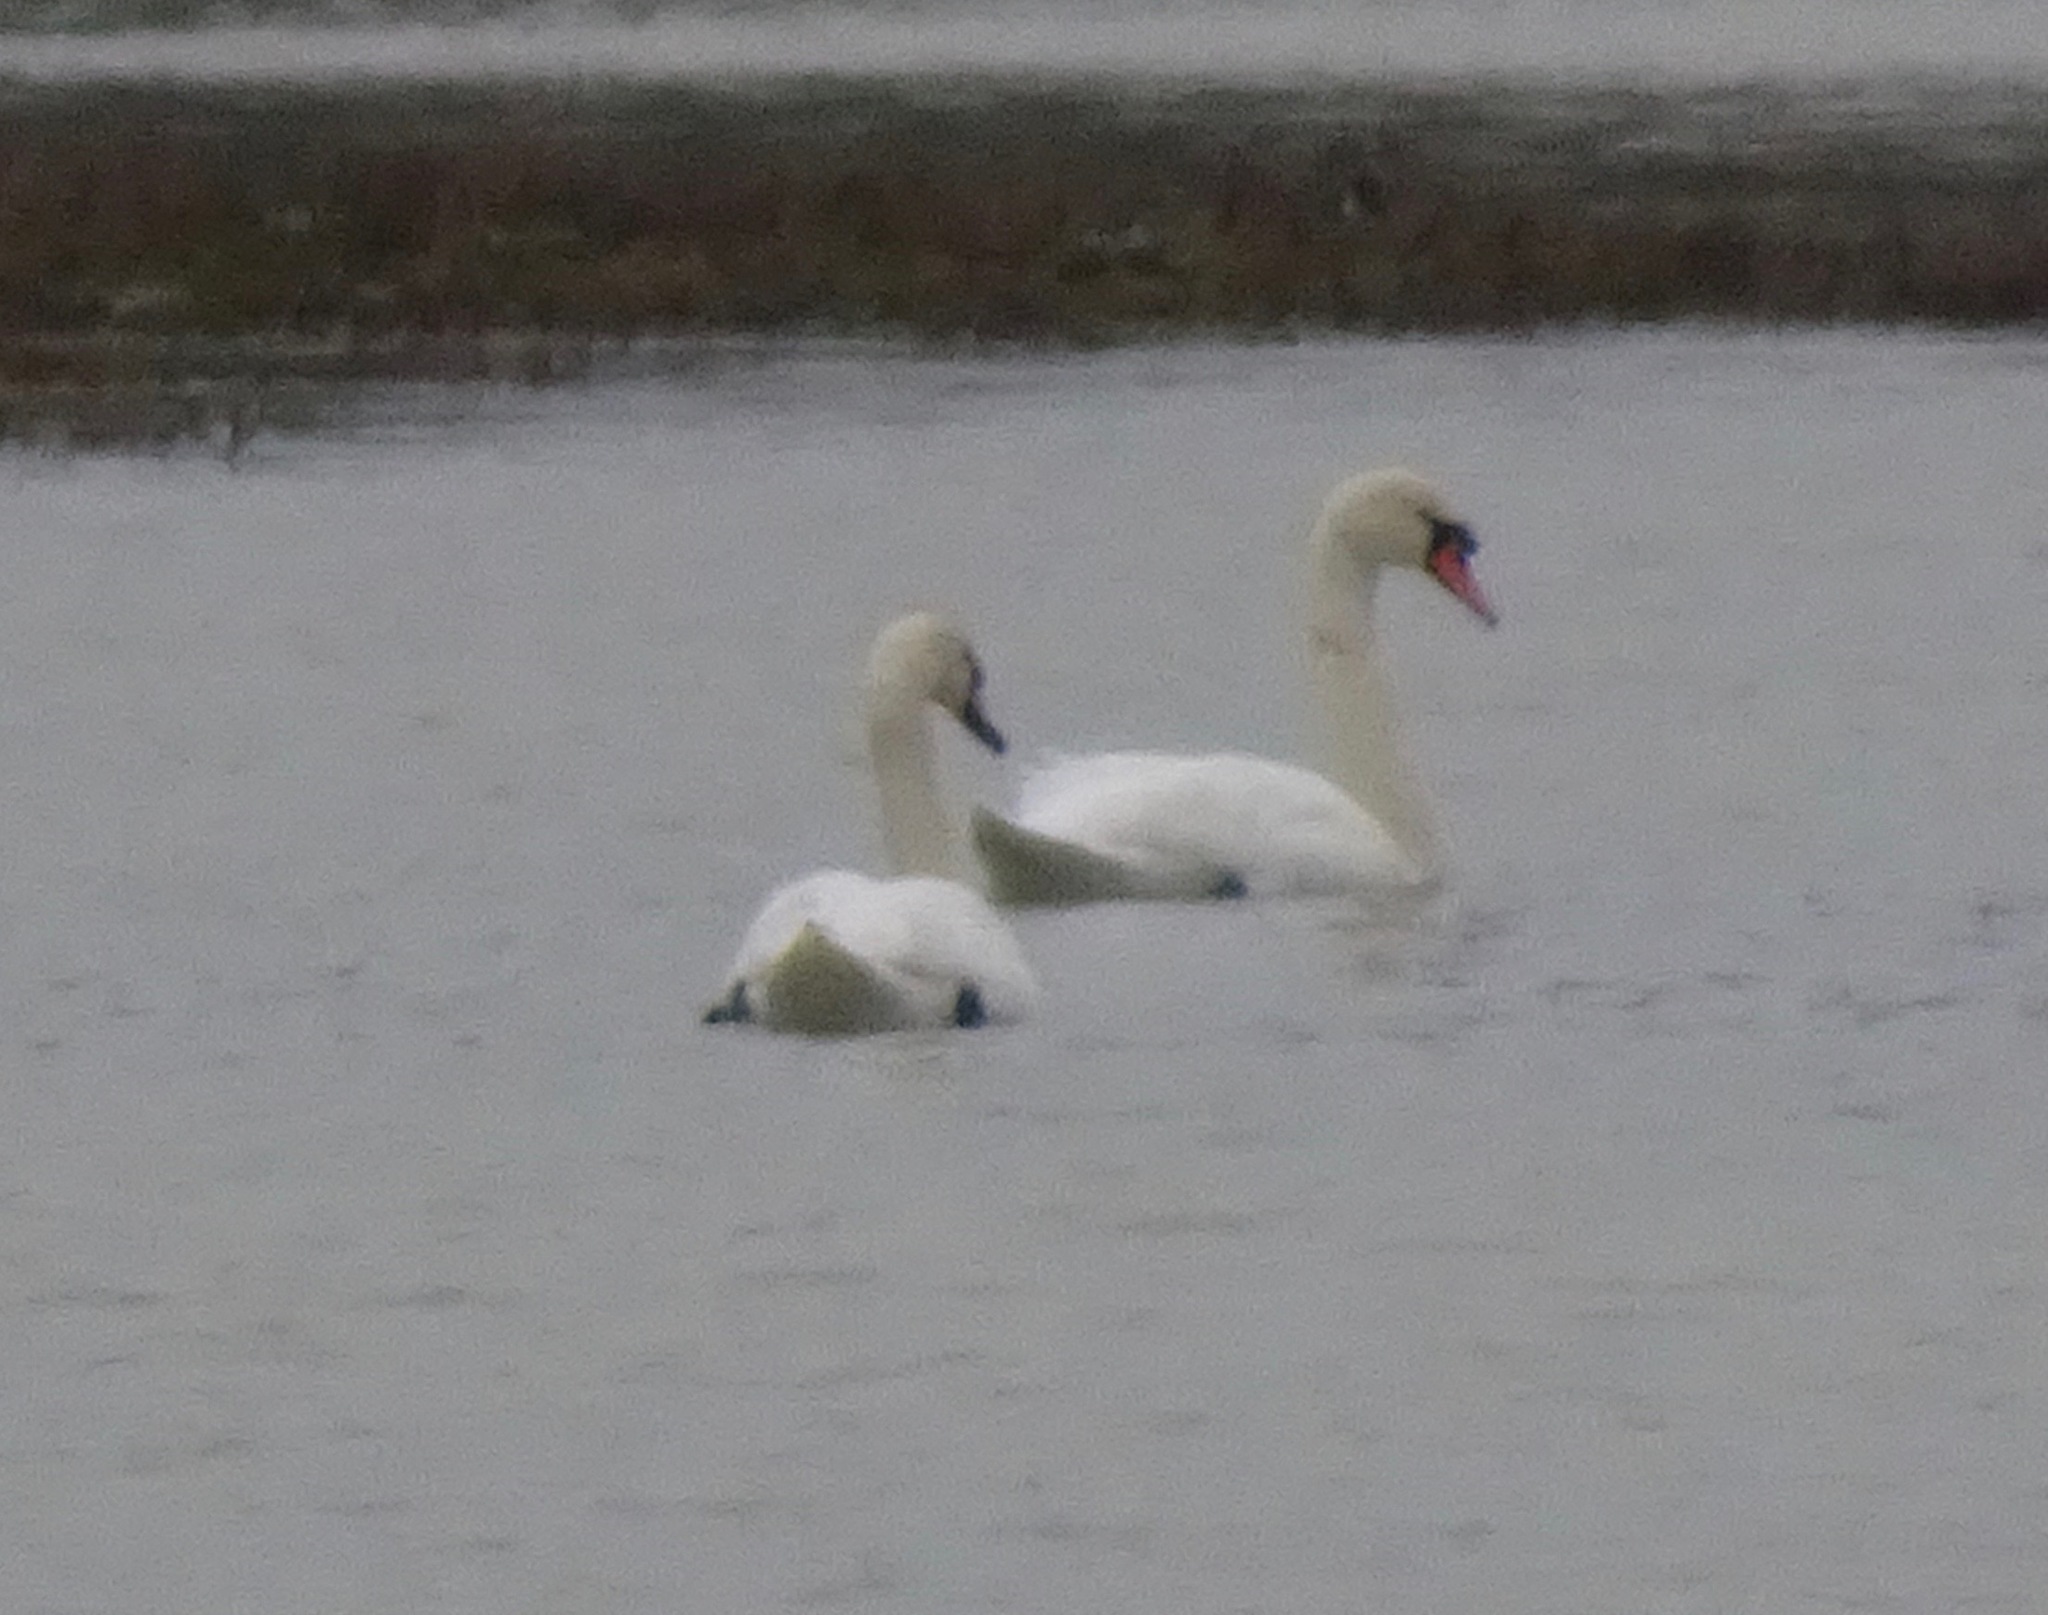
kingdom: Animalia
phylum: Chordata
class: Aves
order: Anseriformes
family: Anatidae
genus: Cygnus
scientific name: Cygnus olor
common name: Mute swan
